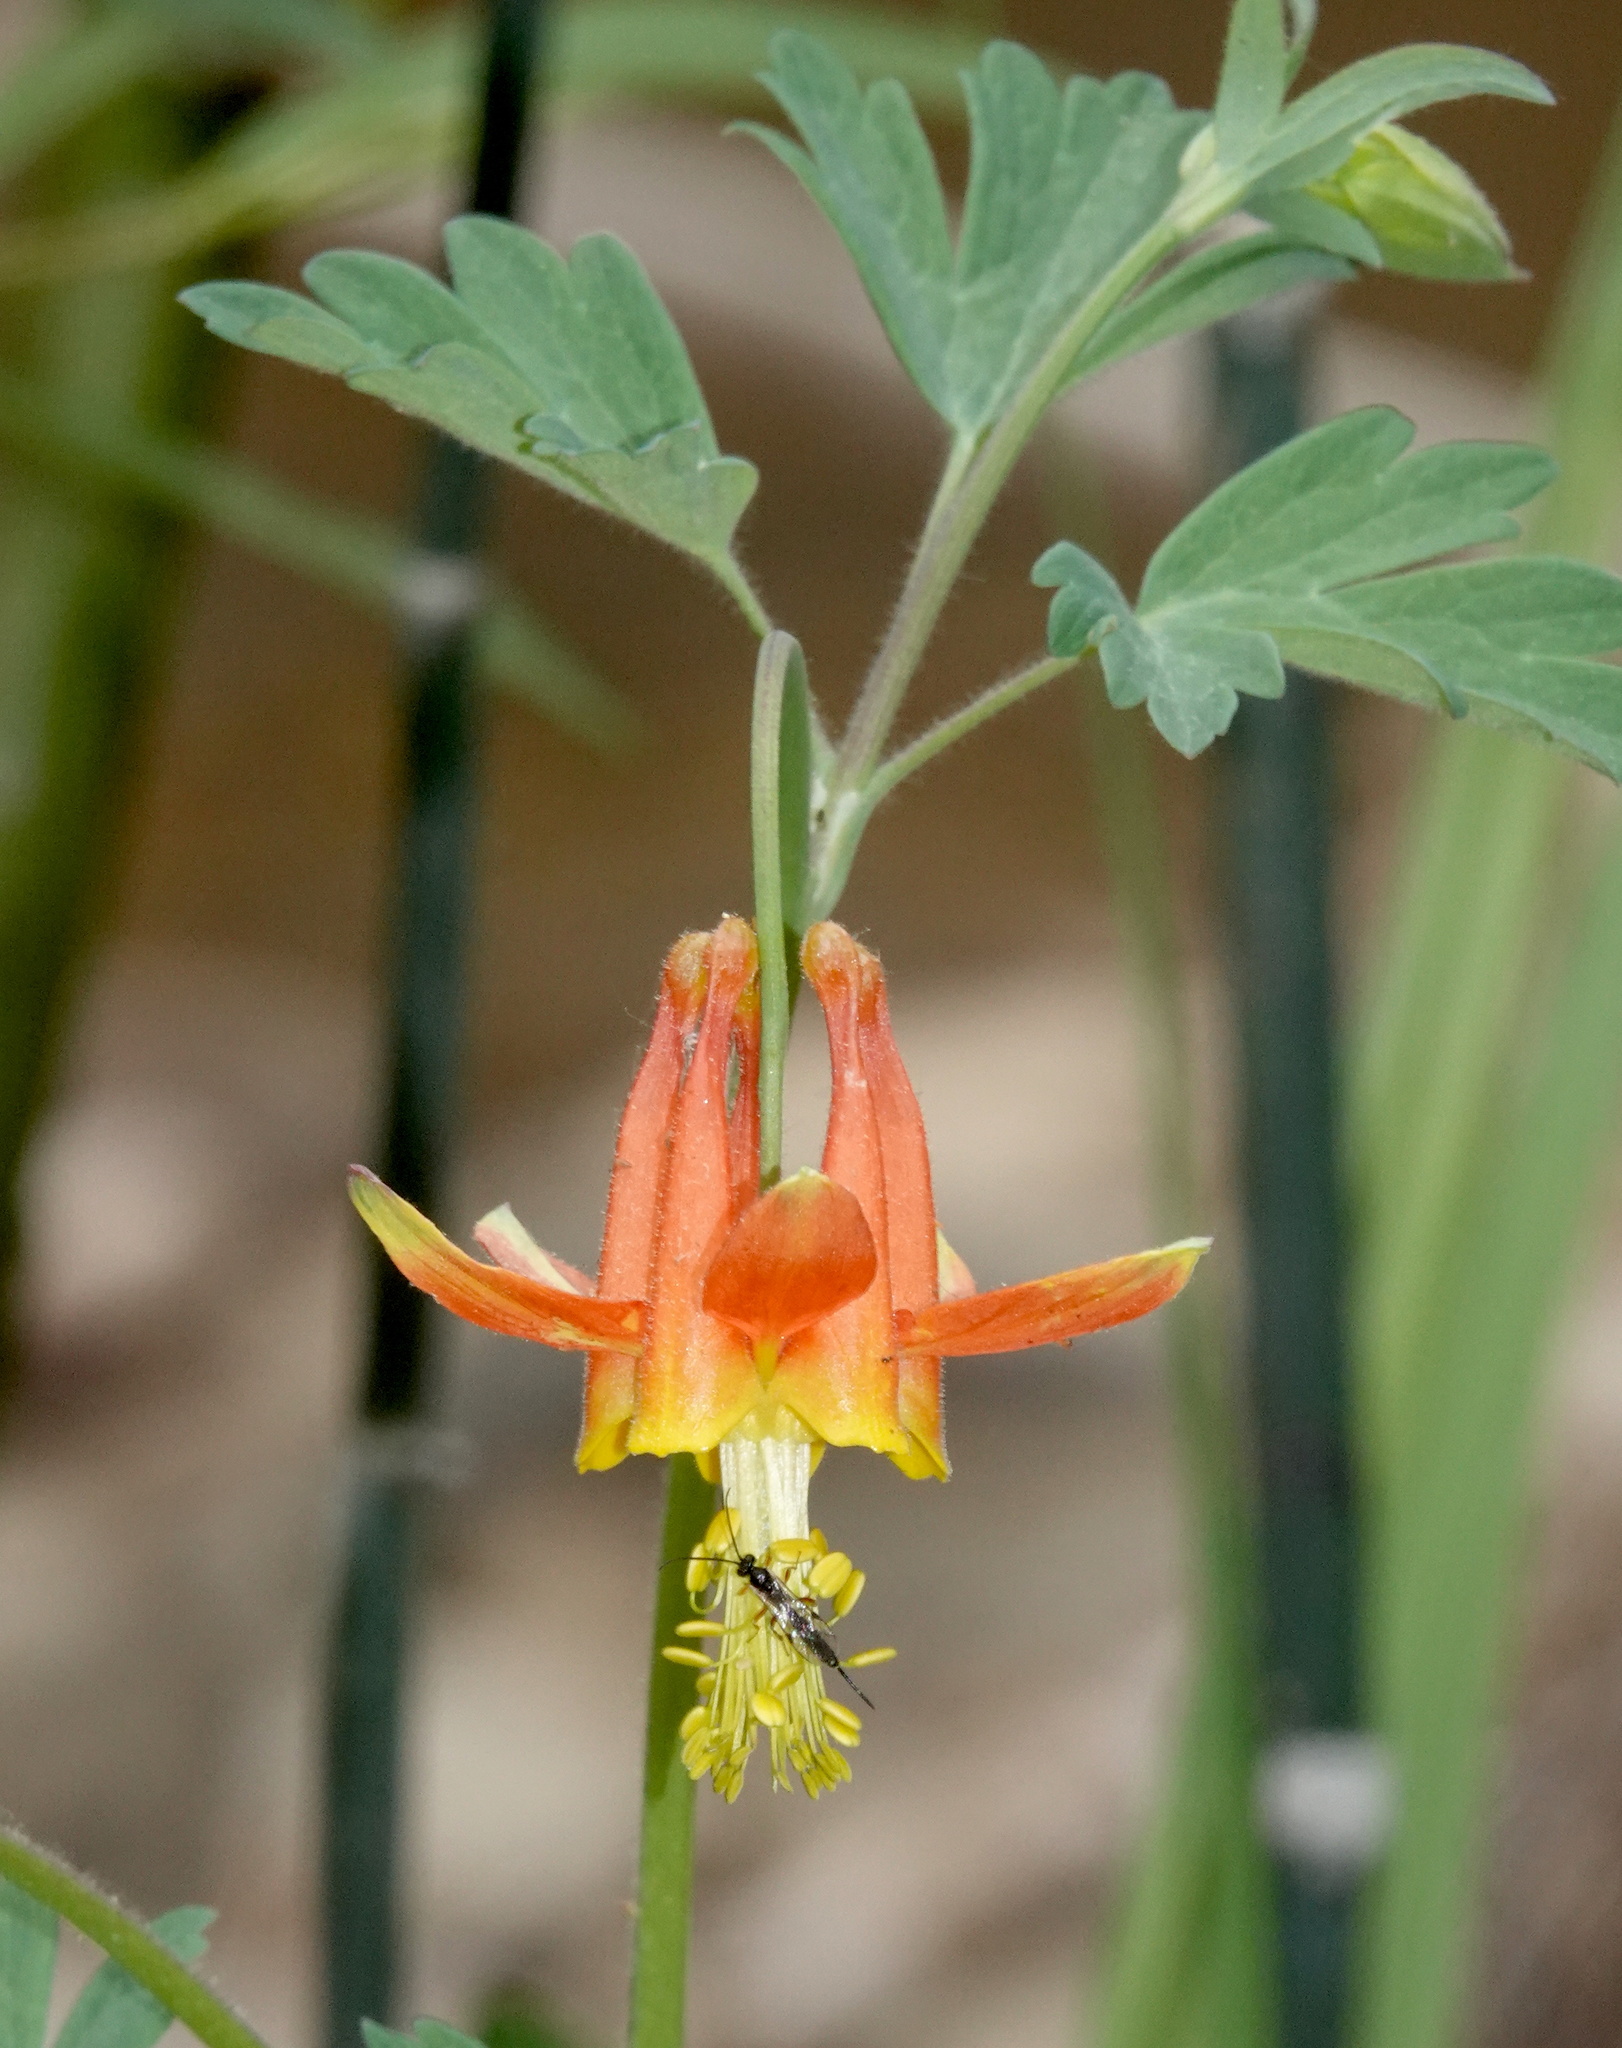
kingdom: Plantae
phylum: Tracheophyta
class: Magnoliopsida
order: Ranunculales
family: Ranunculaceae
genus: Aquilegia
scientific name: Aquilegia formosa
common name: Sitka columbine
